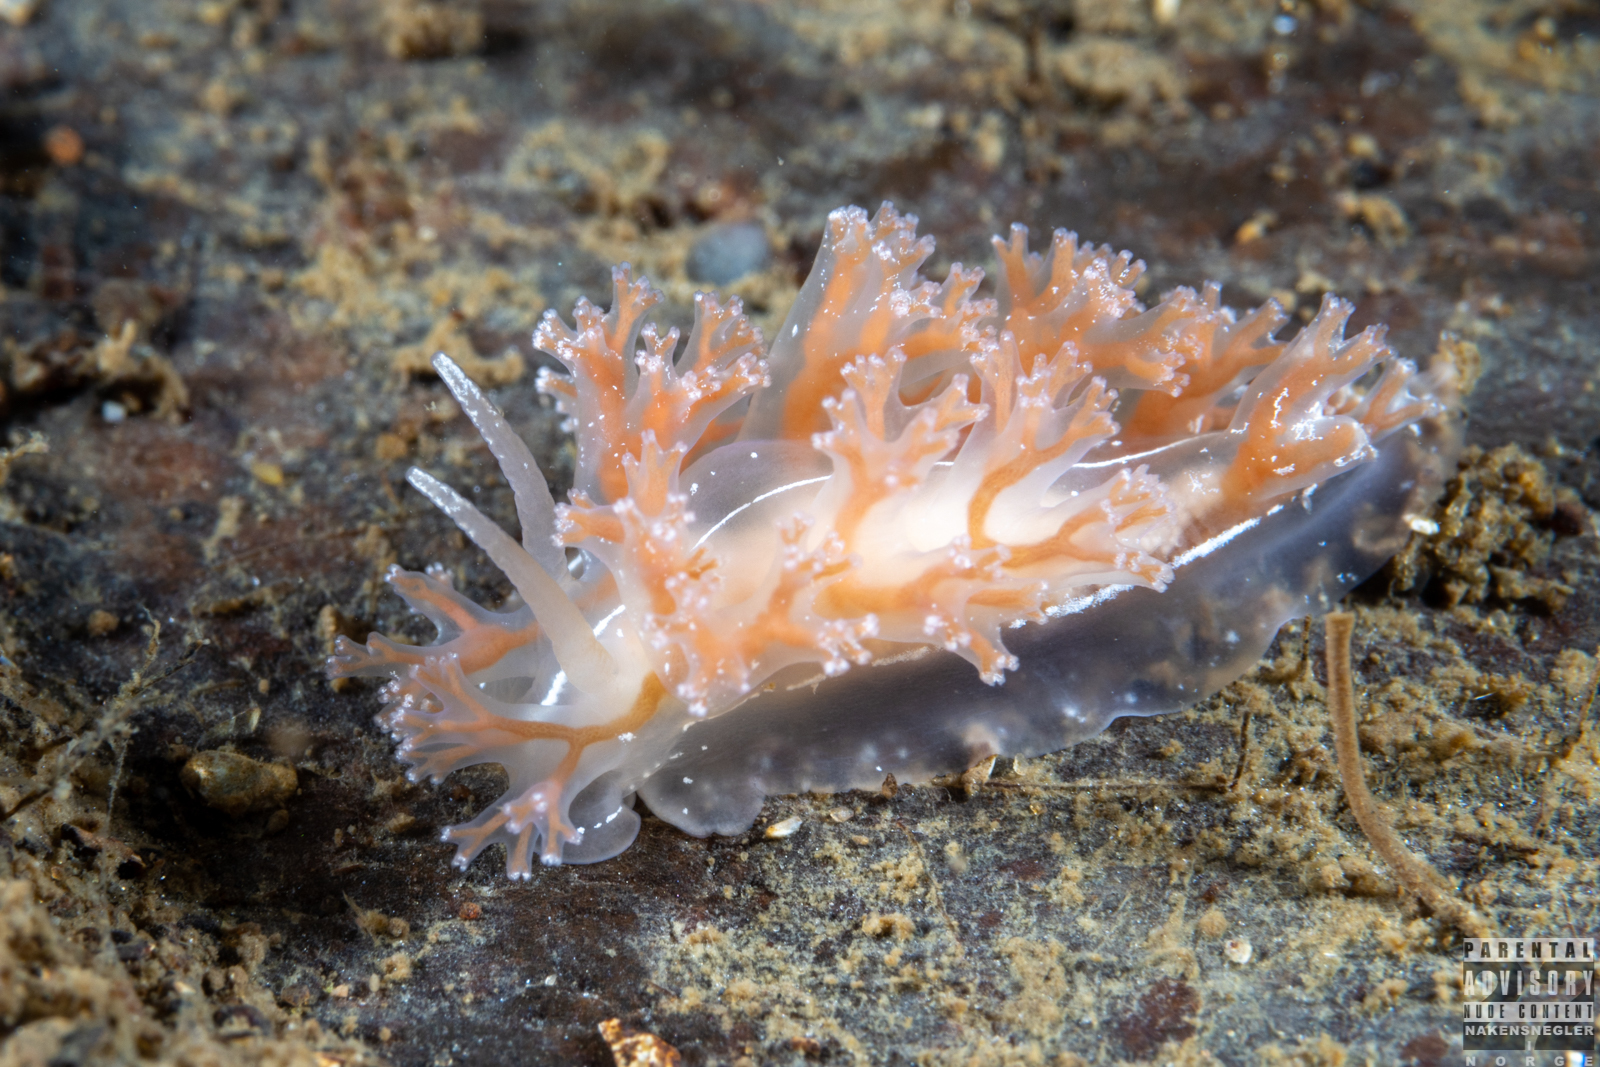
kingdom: Animalia
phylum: Mollusca
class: Gastropoda
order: Nudibranchia
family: Heroidae
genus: Hero
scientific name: Hero formosa
